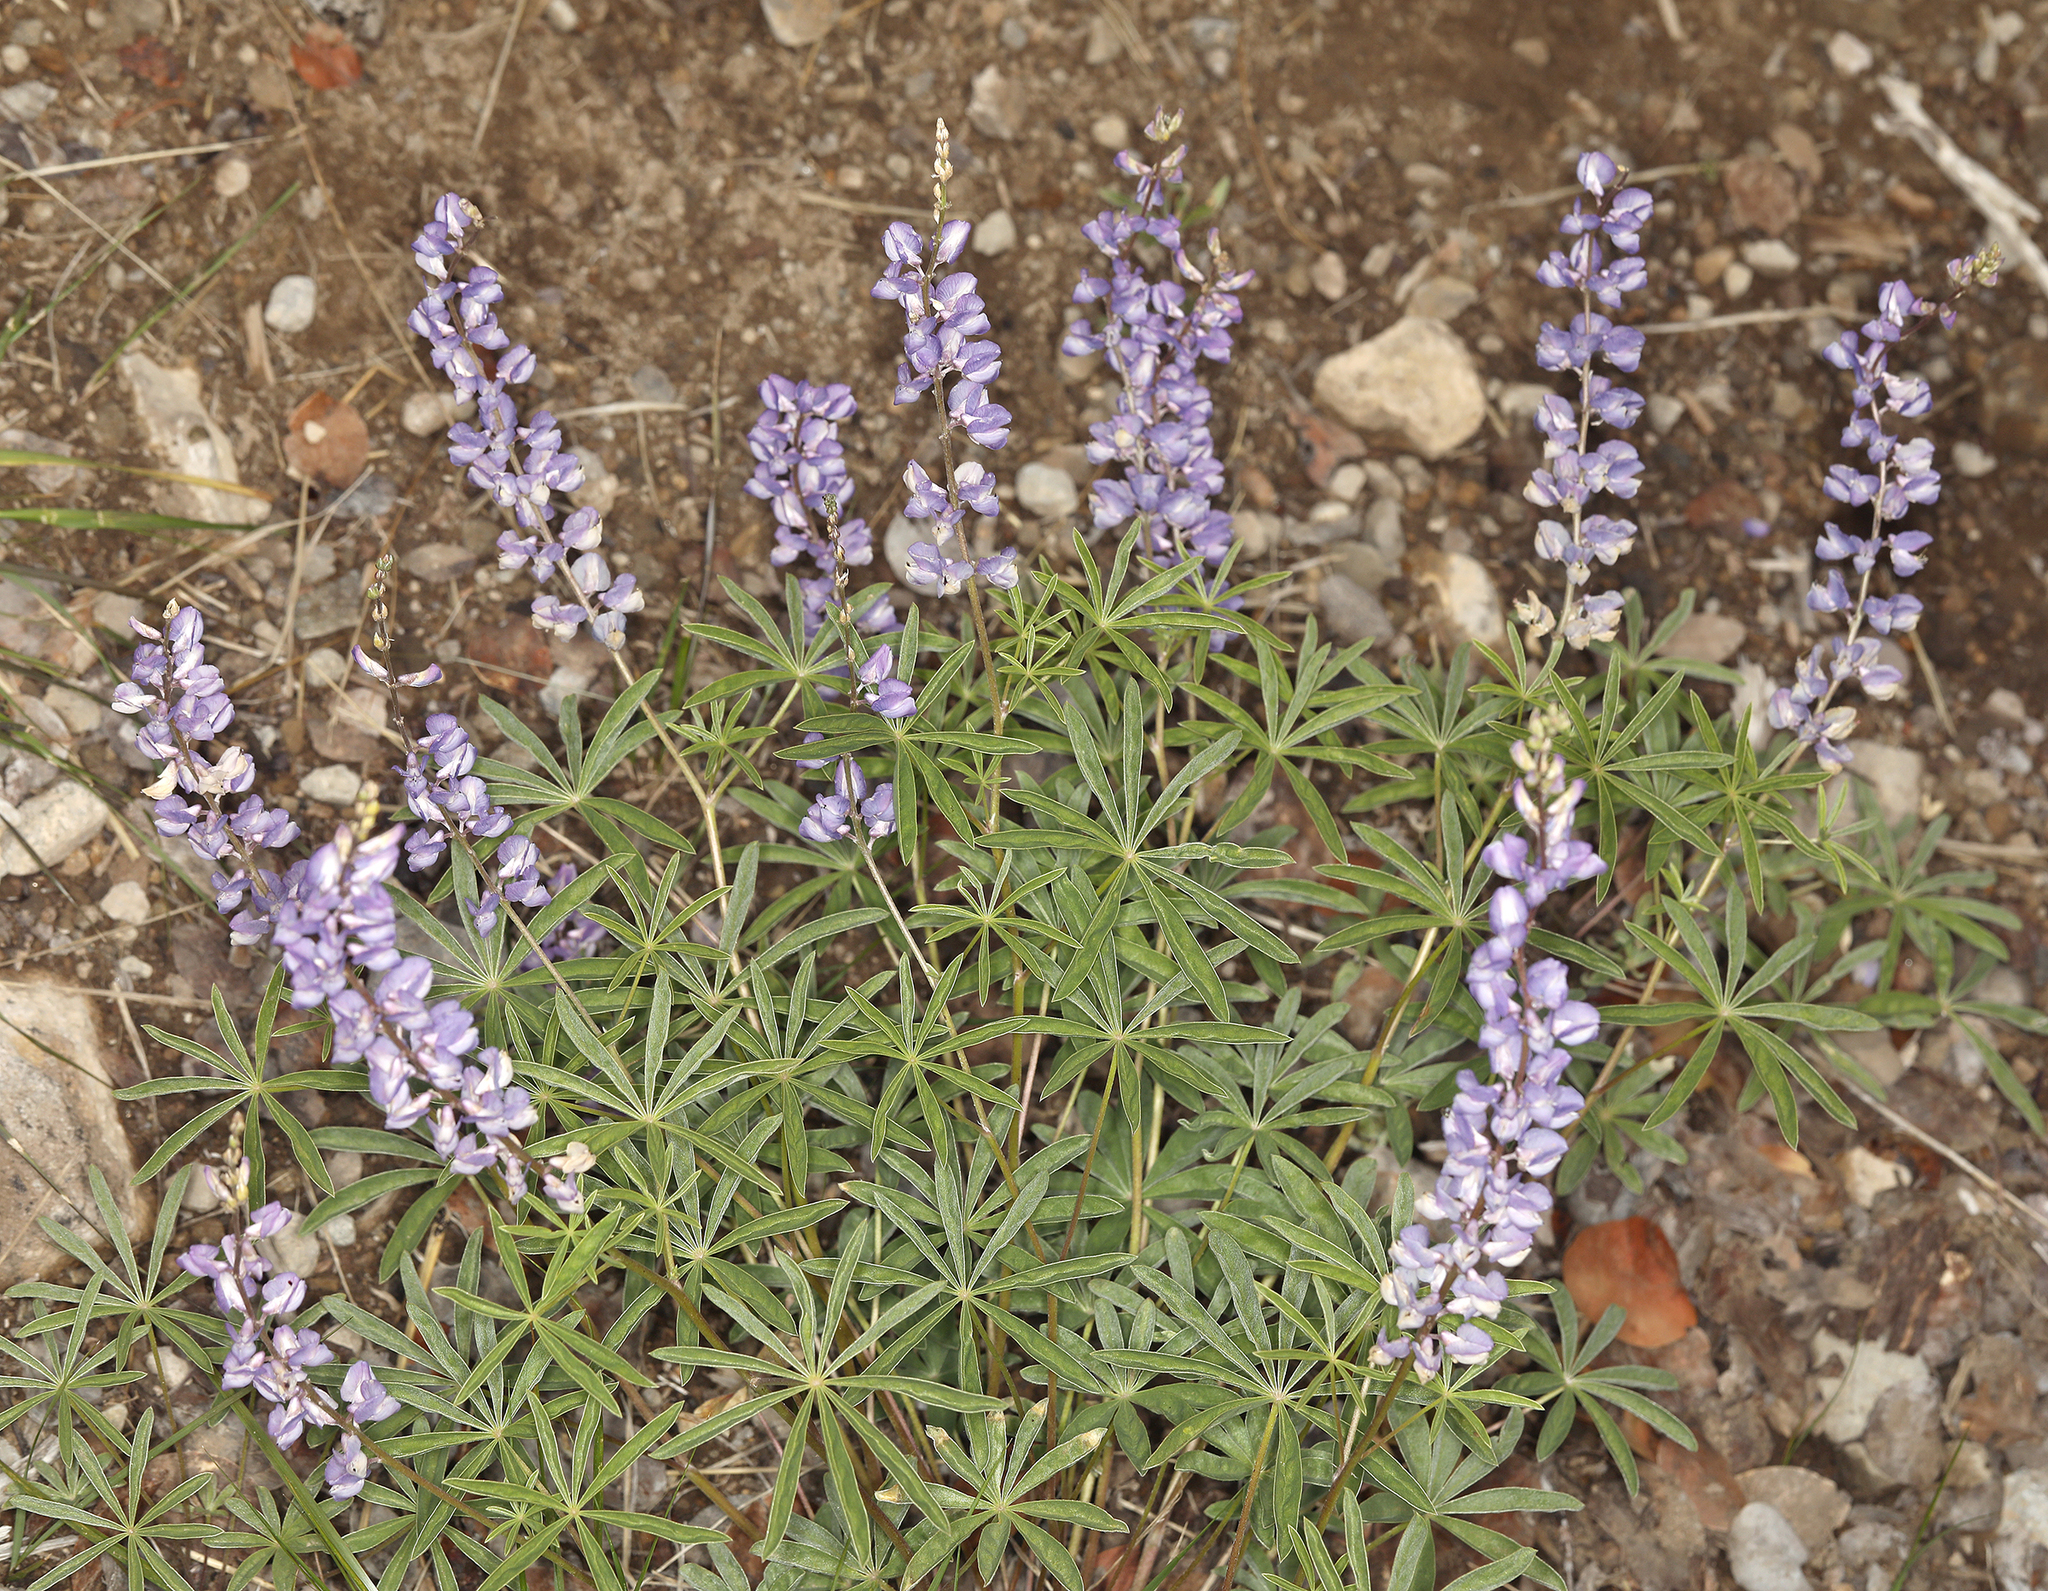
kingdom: Plantae
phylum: Tracheophyta
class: Magnoliopsida
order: Fabales
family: Fabaceae
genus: Lupinus
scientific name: Lupinus argenteus
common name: Silvery lupine
